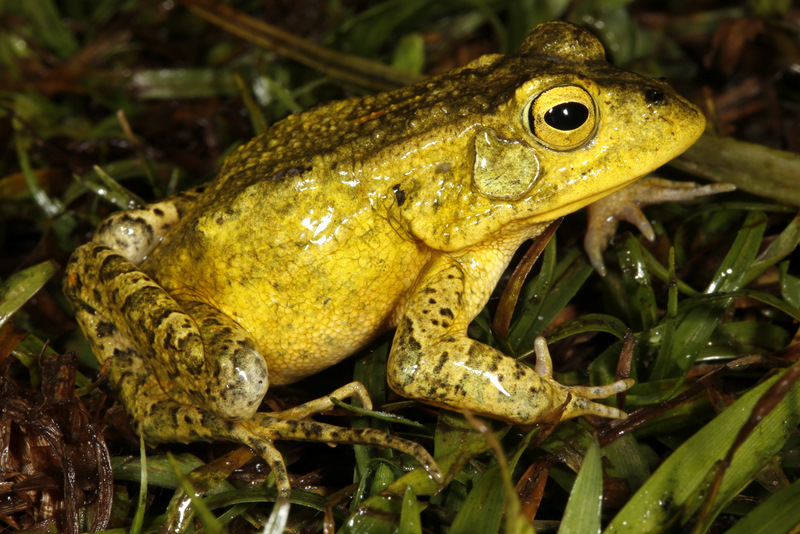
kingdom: Animalia
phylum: Chordata
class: Amphibia
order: Anura
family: Bufonidae
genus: Sclerophrys
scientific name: Sclerophrys lemairii
